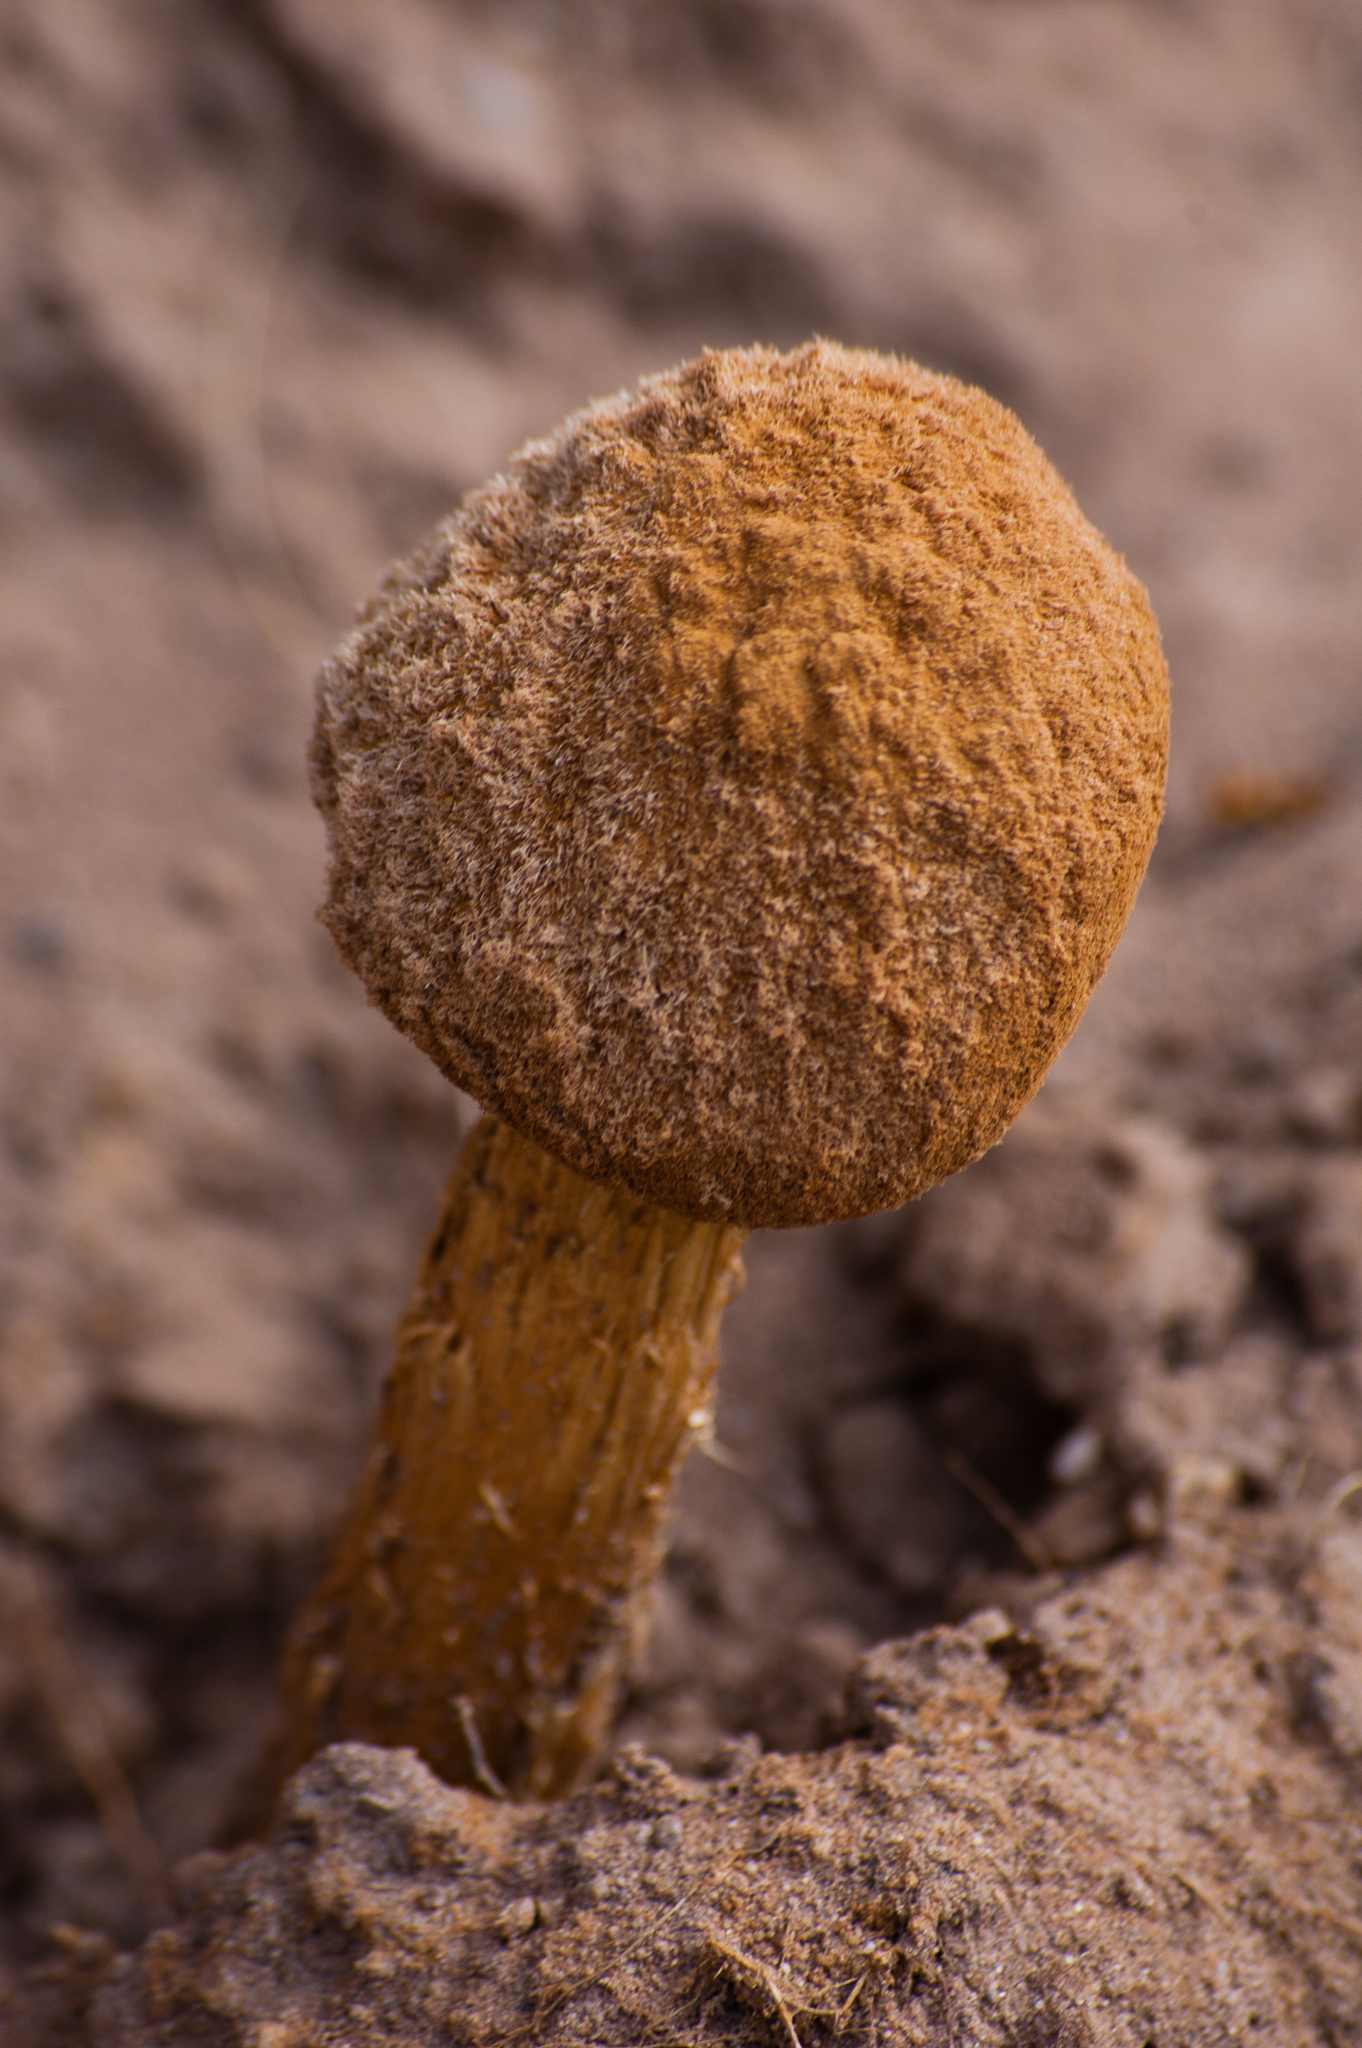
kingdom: Fungi
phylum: Basidiomycota
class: Agaricomycetes
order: Agaricales
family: Agaricaceae
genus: Battarrea
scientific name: Battarrea phalloides
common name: Sandy stiltball
